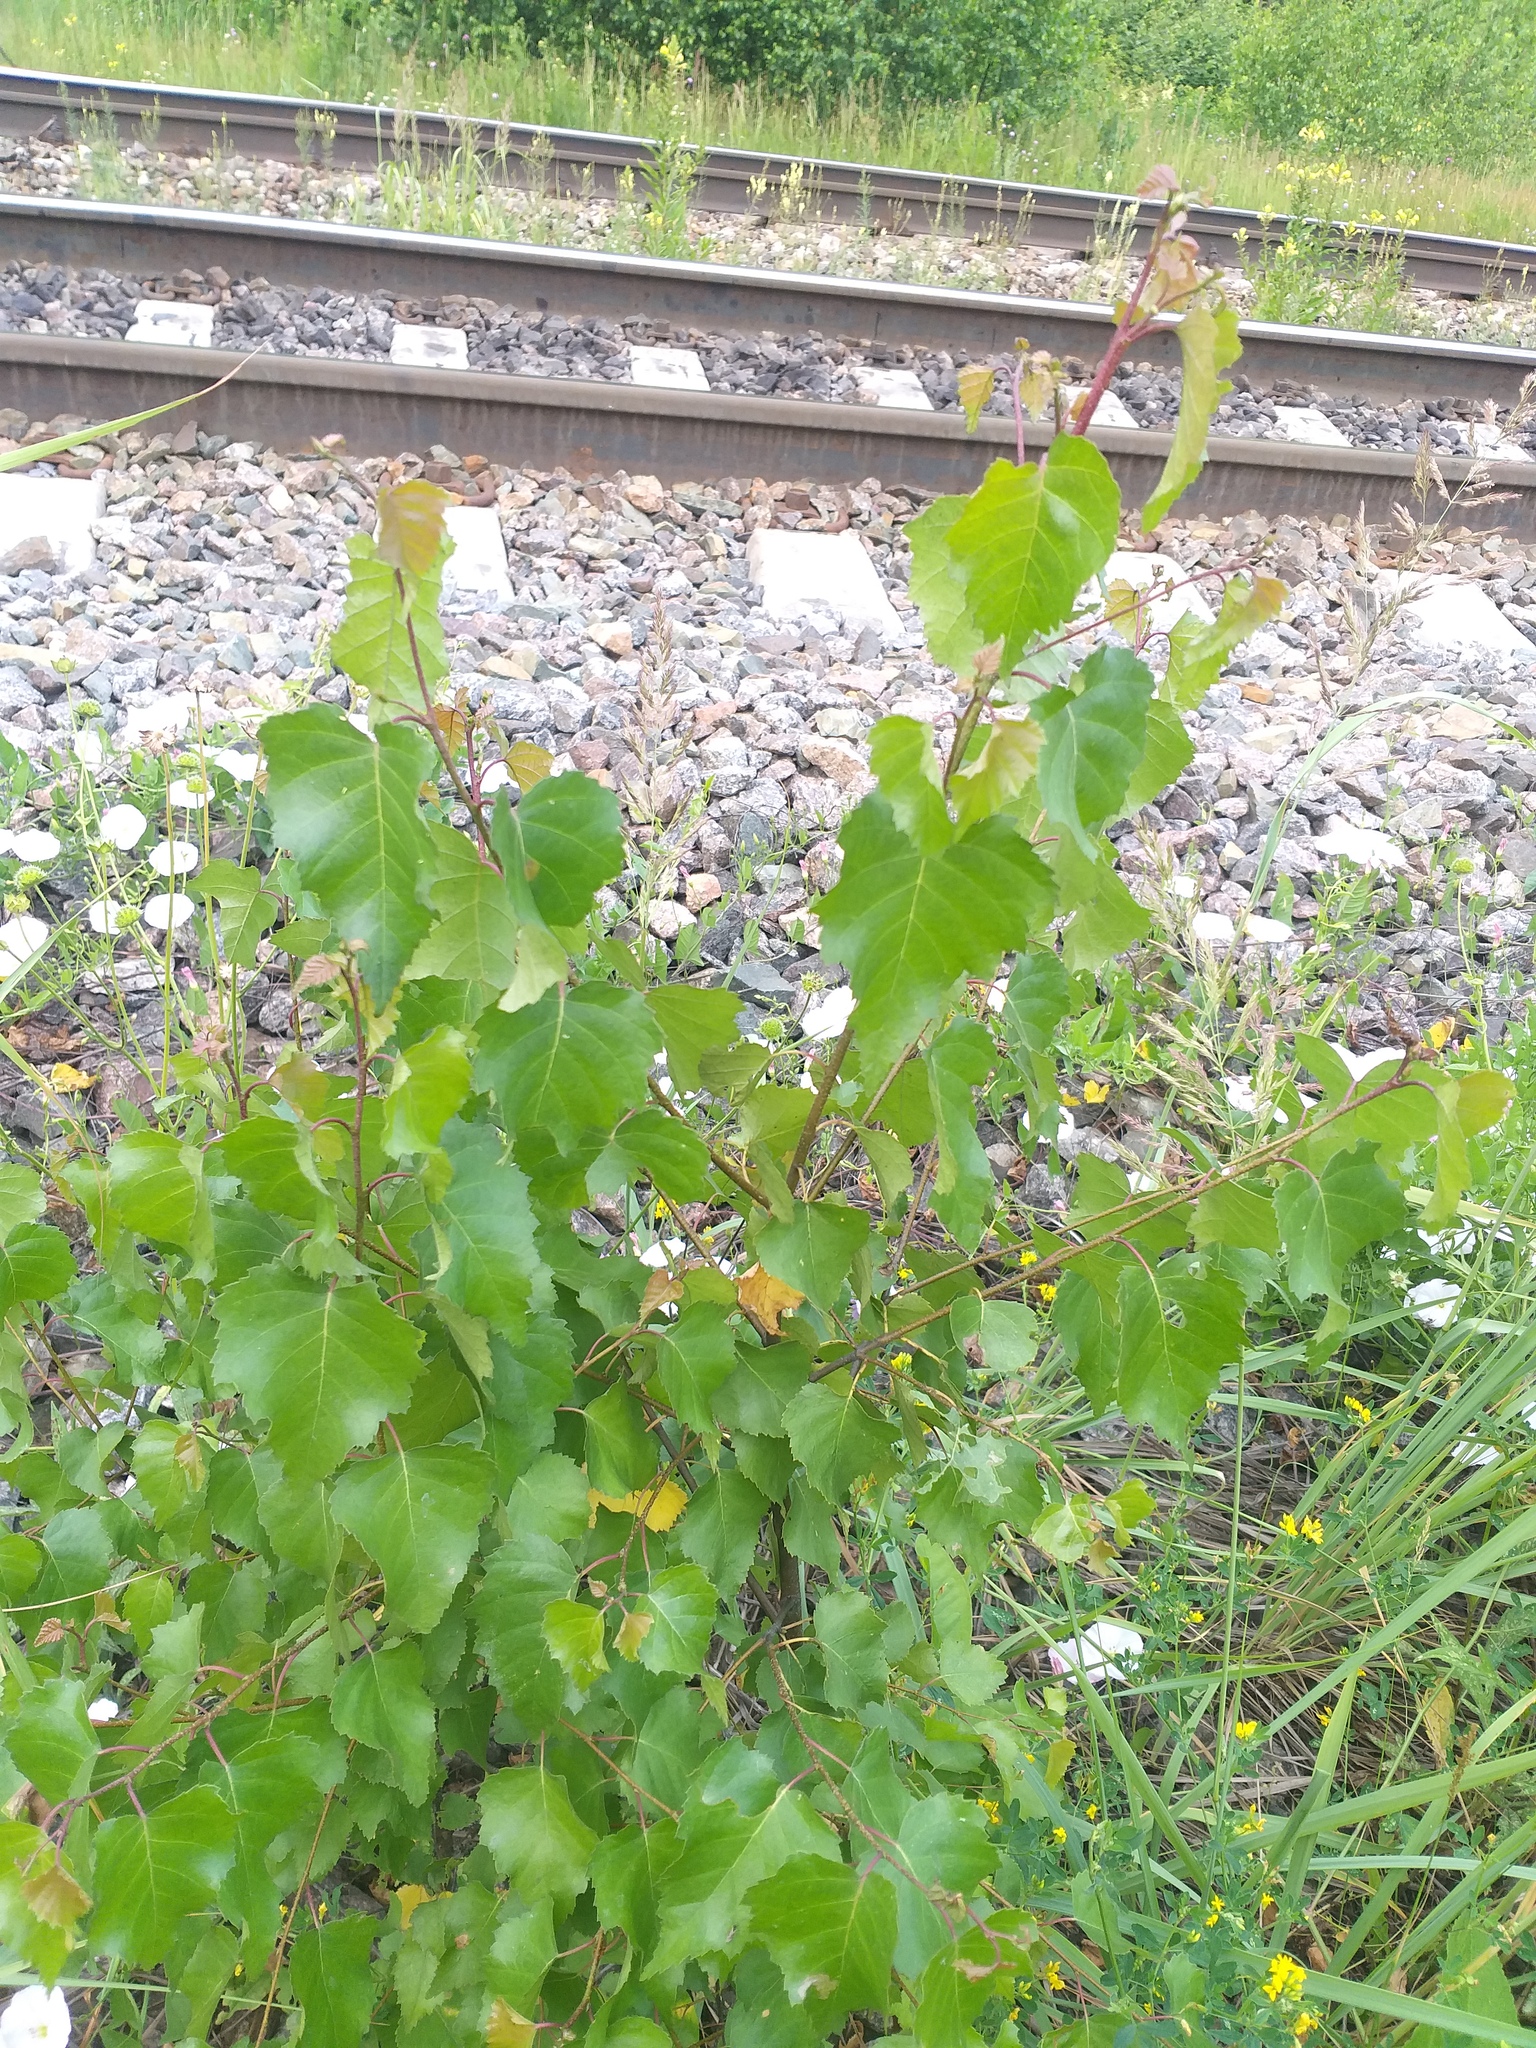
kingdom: Plantae
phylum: Tracheophyta
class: Magnoliopsida
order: Fagales
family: Betulaceae
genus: Betula
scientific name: Betula pendula
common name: Silver birch
